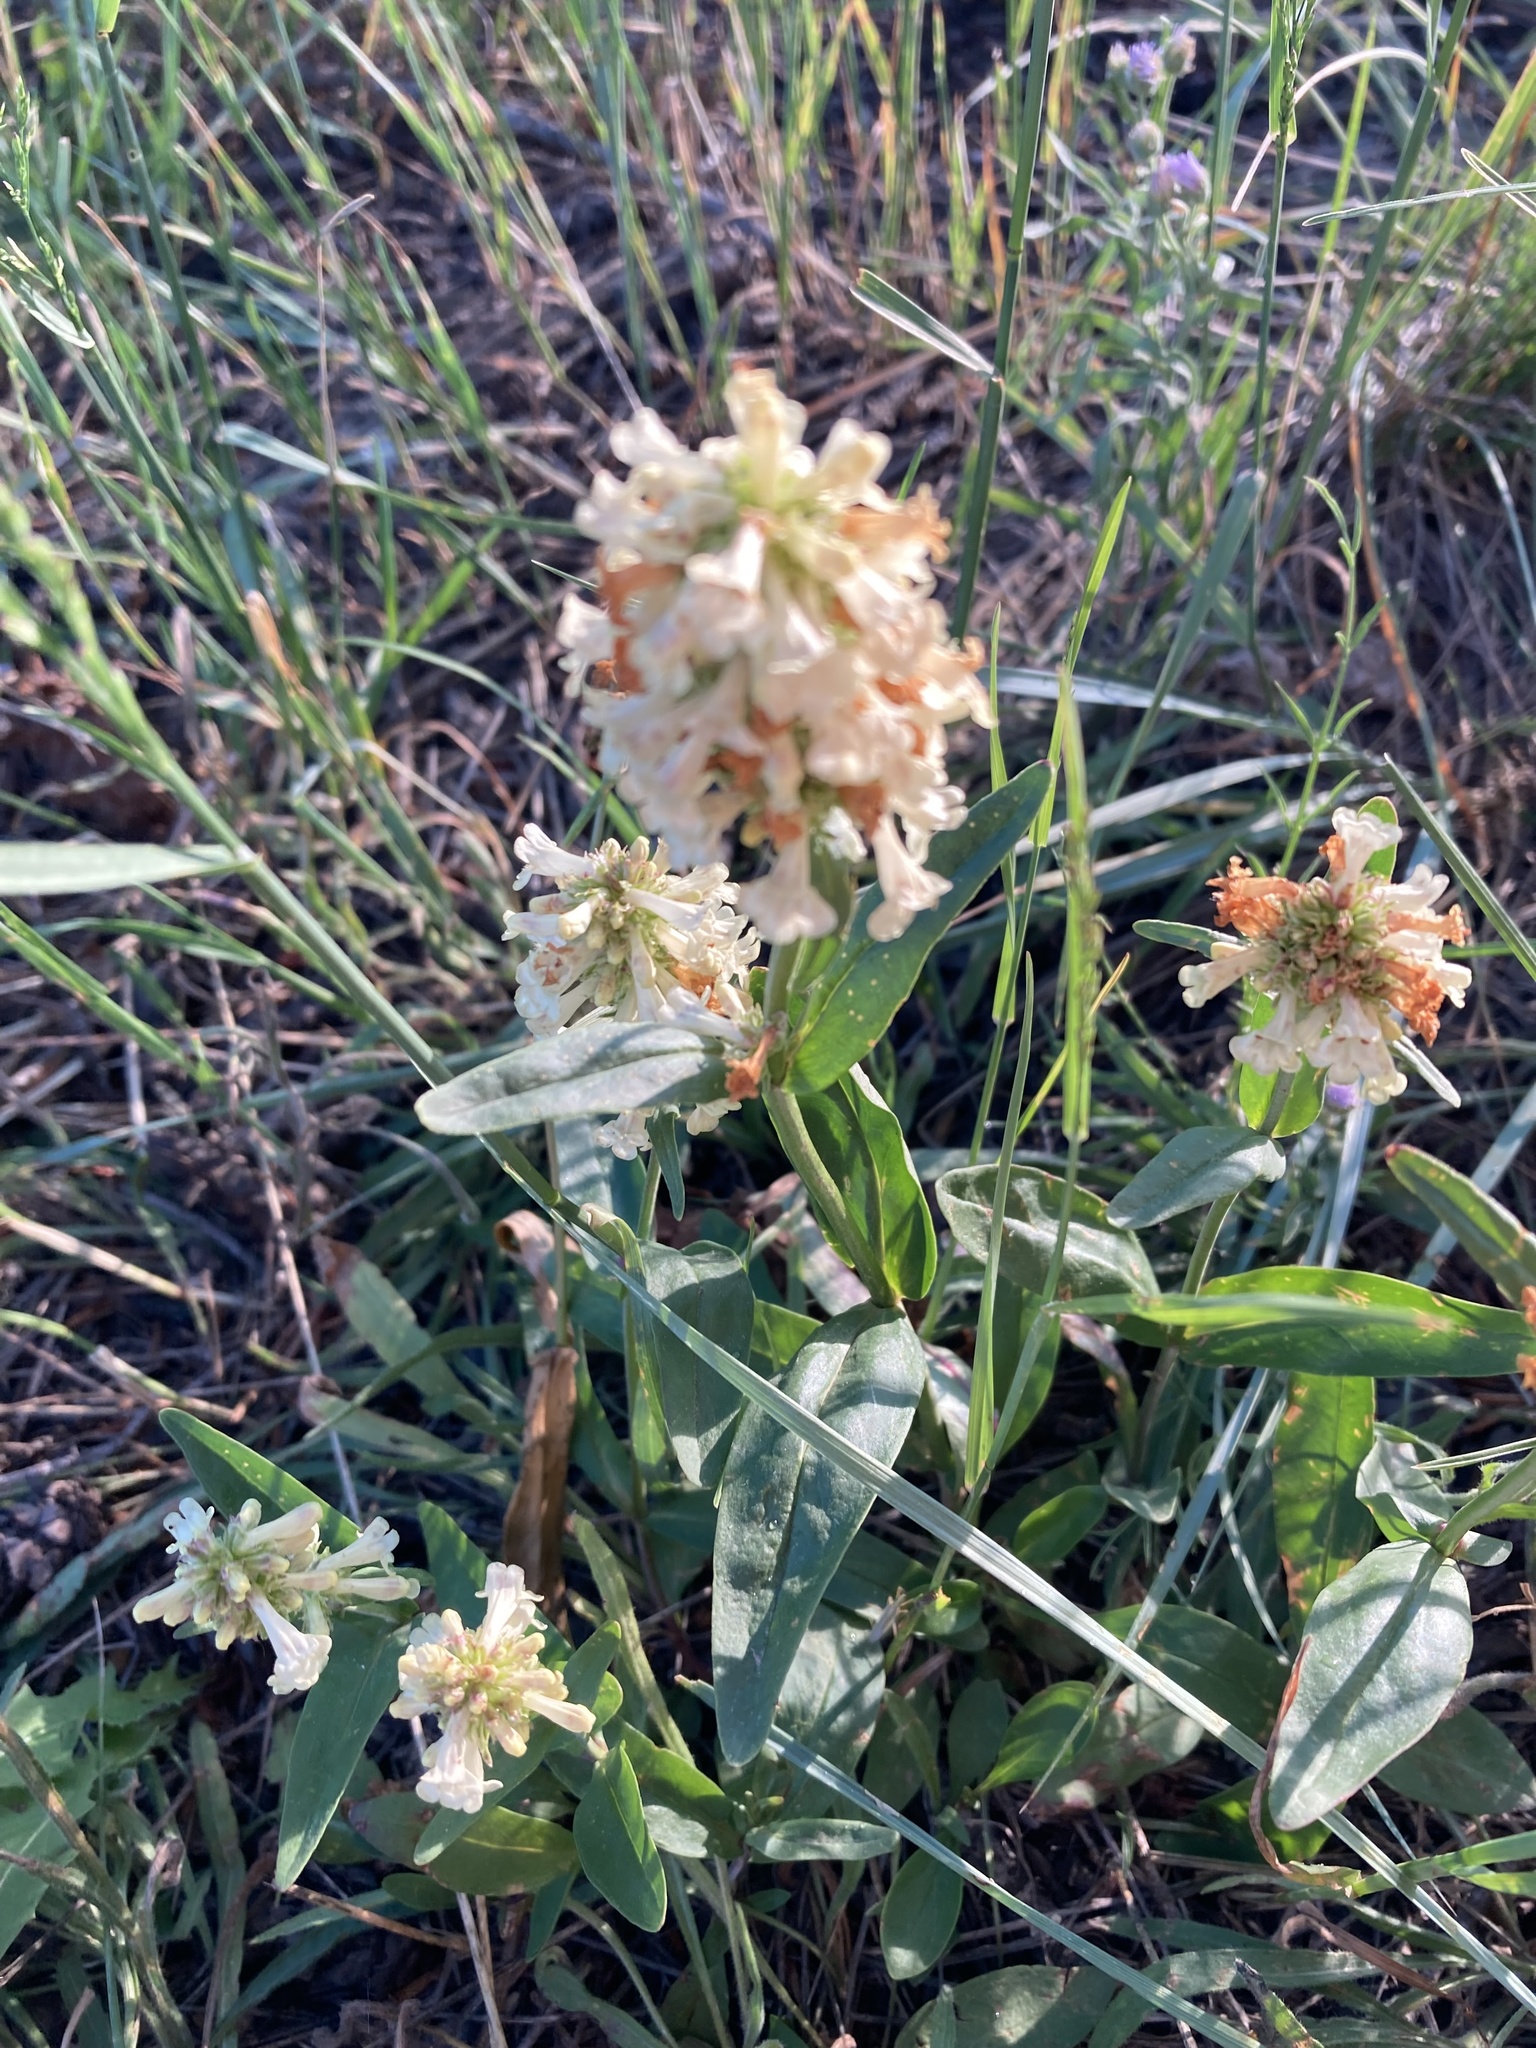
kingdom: Plantae
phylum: Tracheophyta
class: Magnoliopsida
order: Lamiales
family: Plantaginaceae
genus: Penstemon
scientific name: Penstemon confertus
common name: Lesser yellow beardtongue
